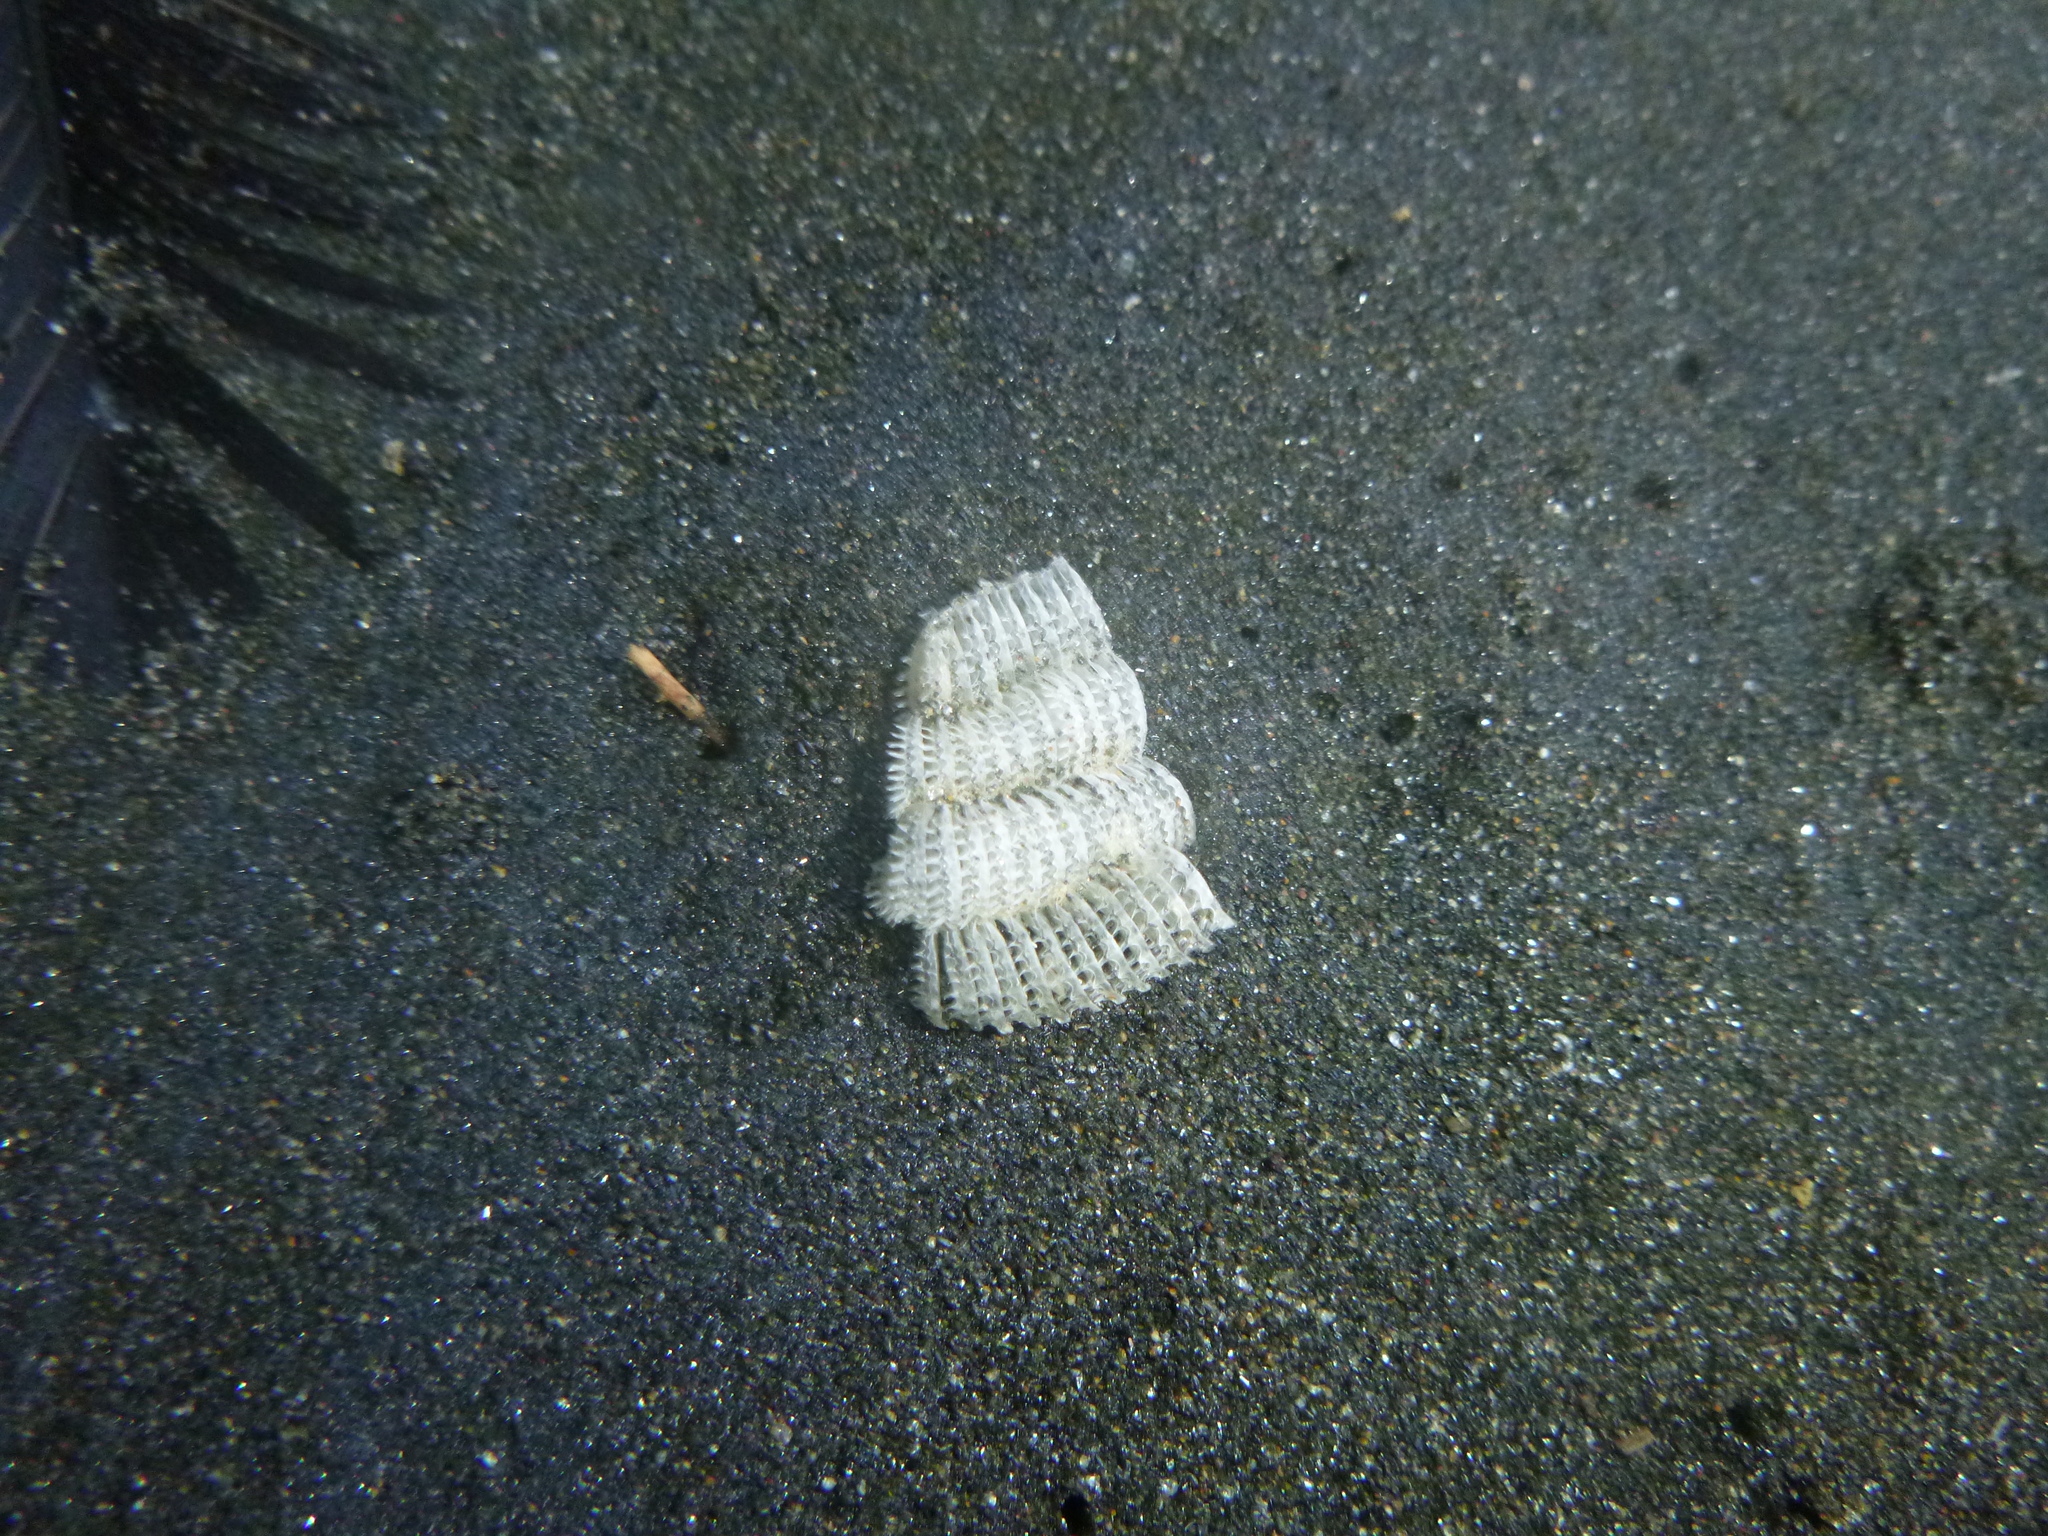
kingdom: Animalia
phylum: Mollusca
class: Gastropoda
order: Neogastropoda
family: Muricidae
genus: Poirieria
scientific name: Poirieria zelandica
